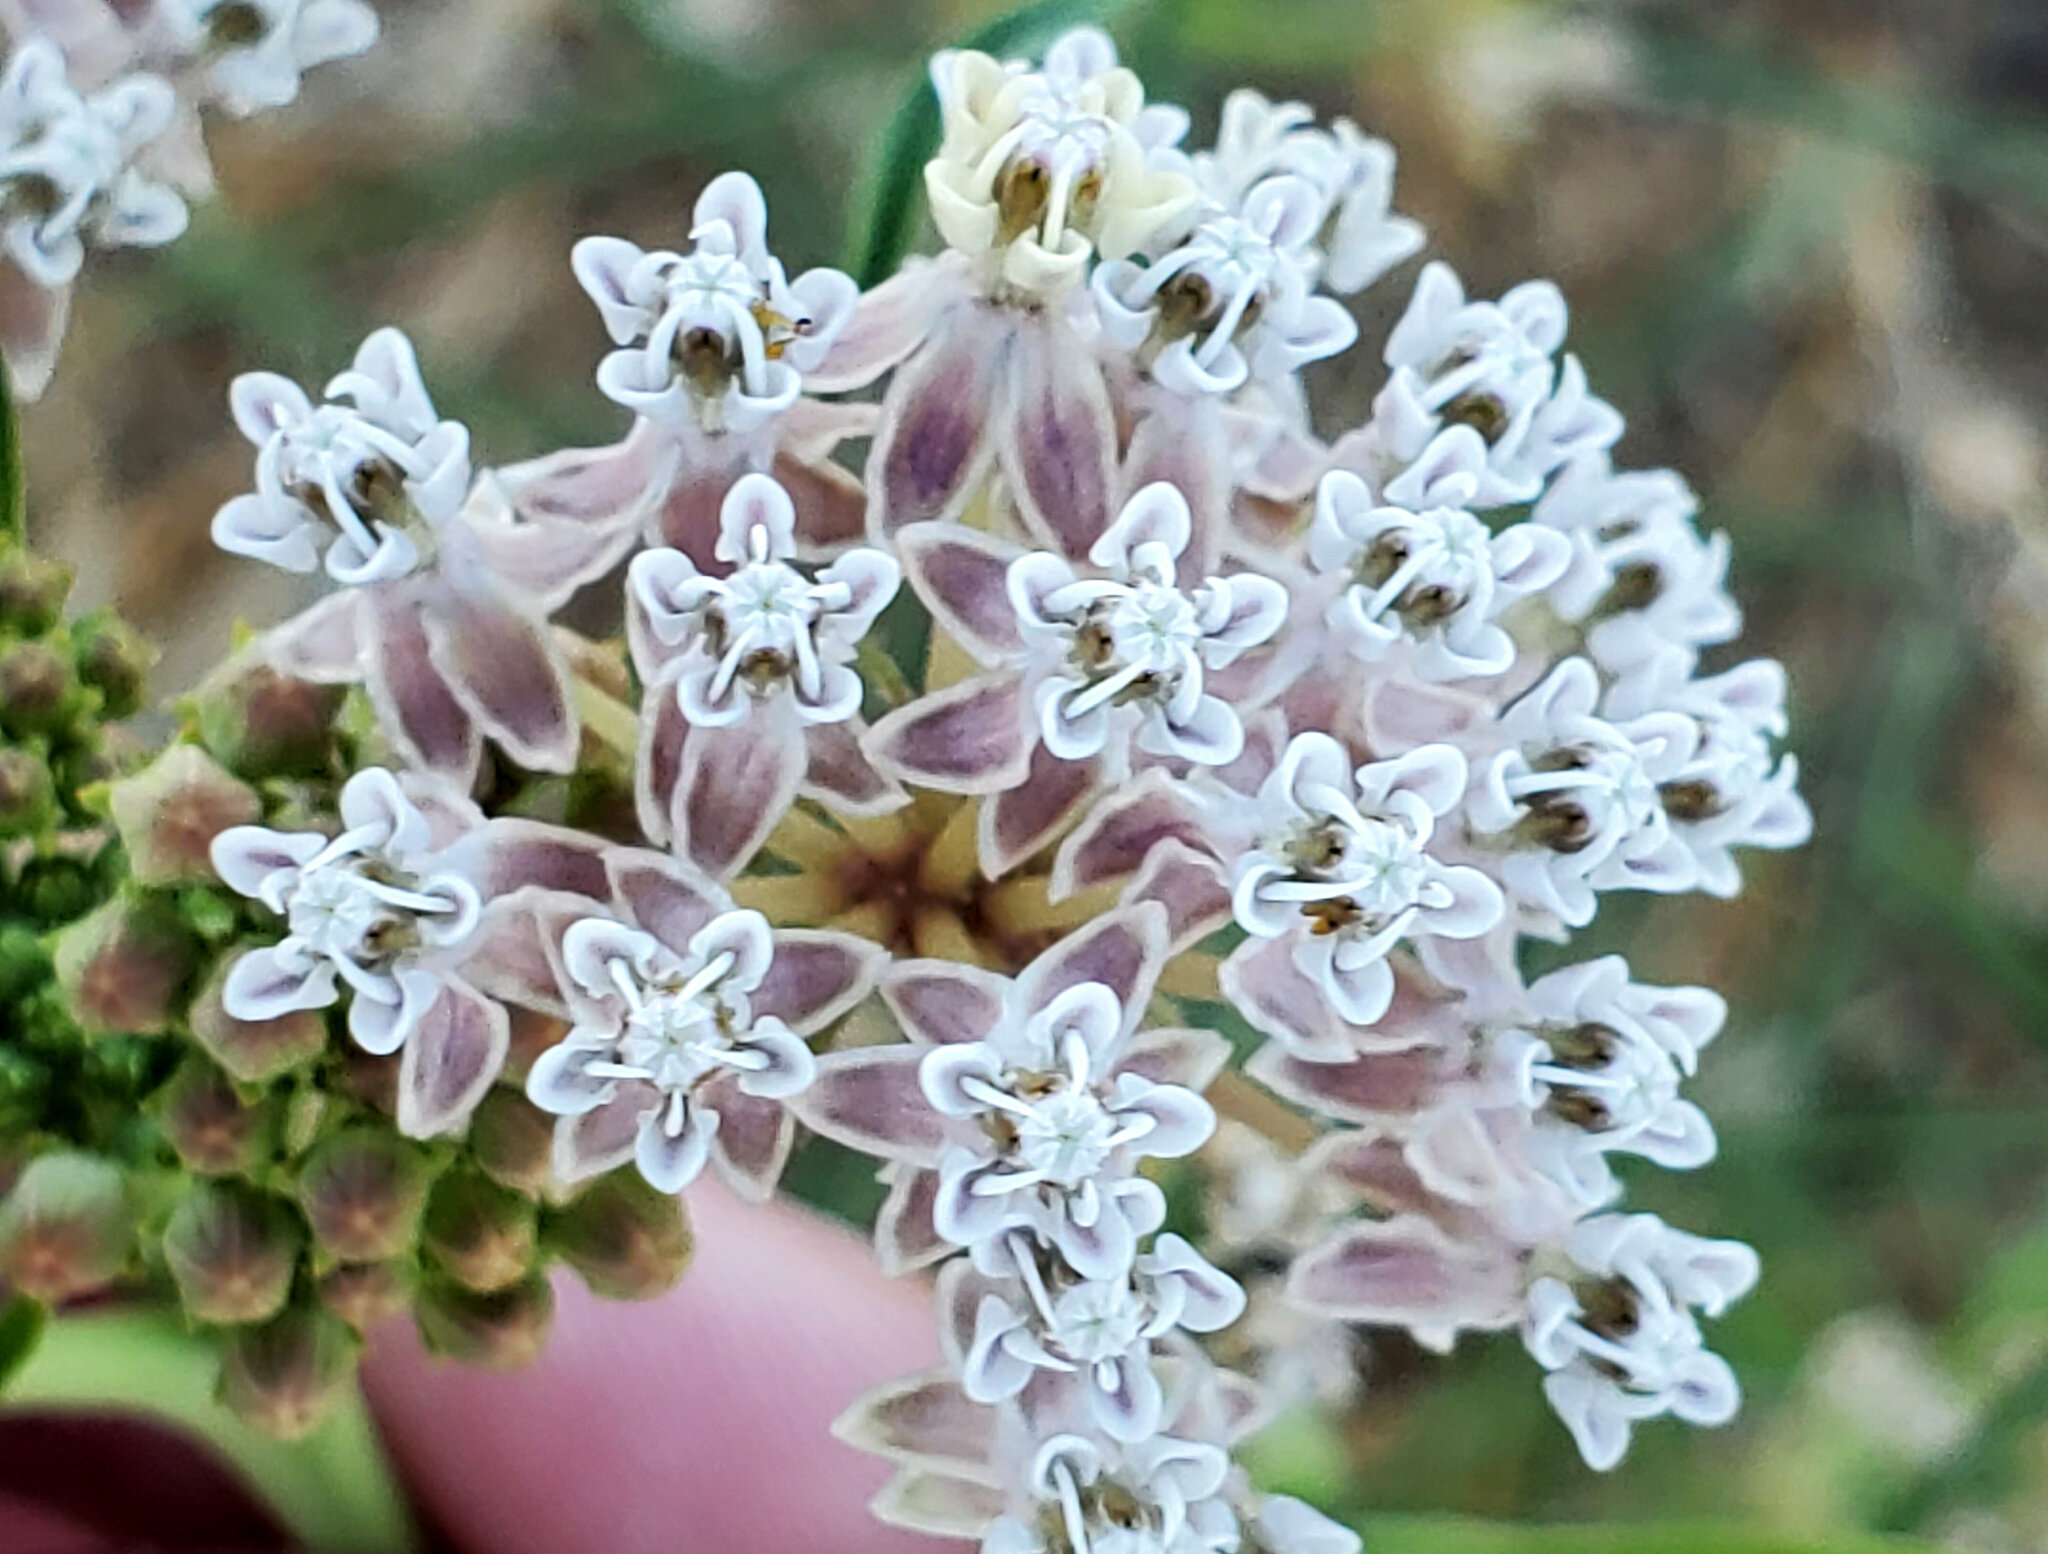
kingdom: Plantae
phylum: Tracheophyta
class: Magnoliopsida
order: Gentianales
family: Apocynaceae
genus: Asclepias
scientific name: Asclepias fascicularis
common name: Mexican milkweed
